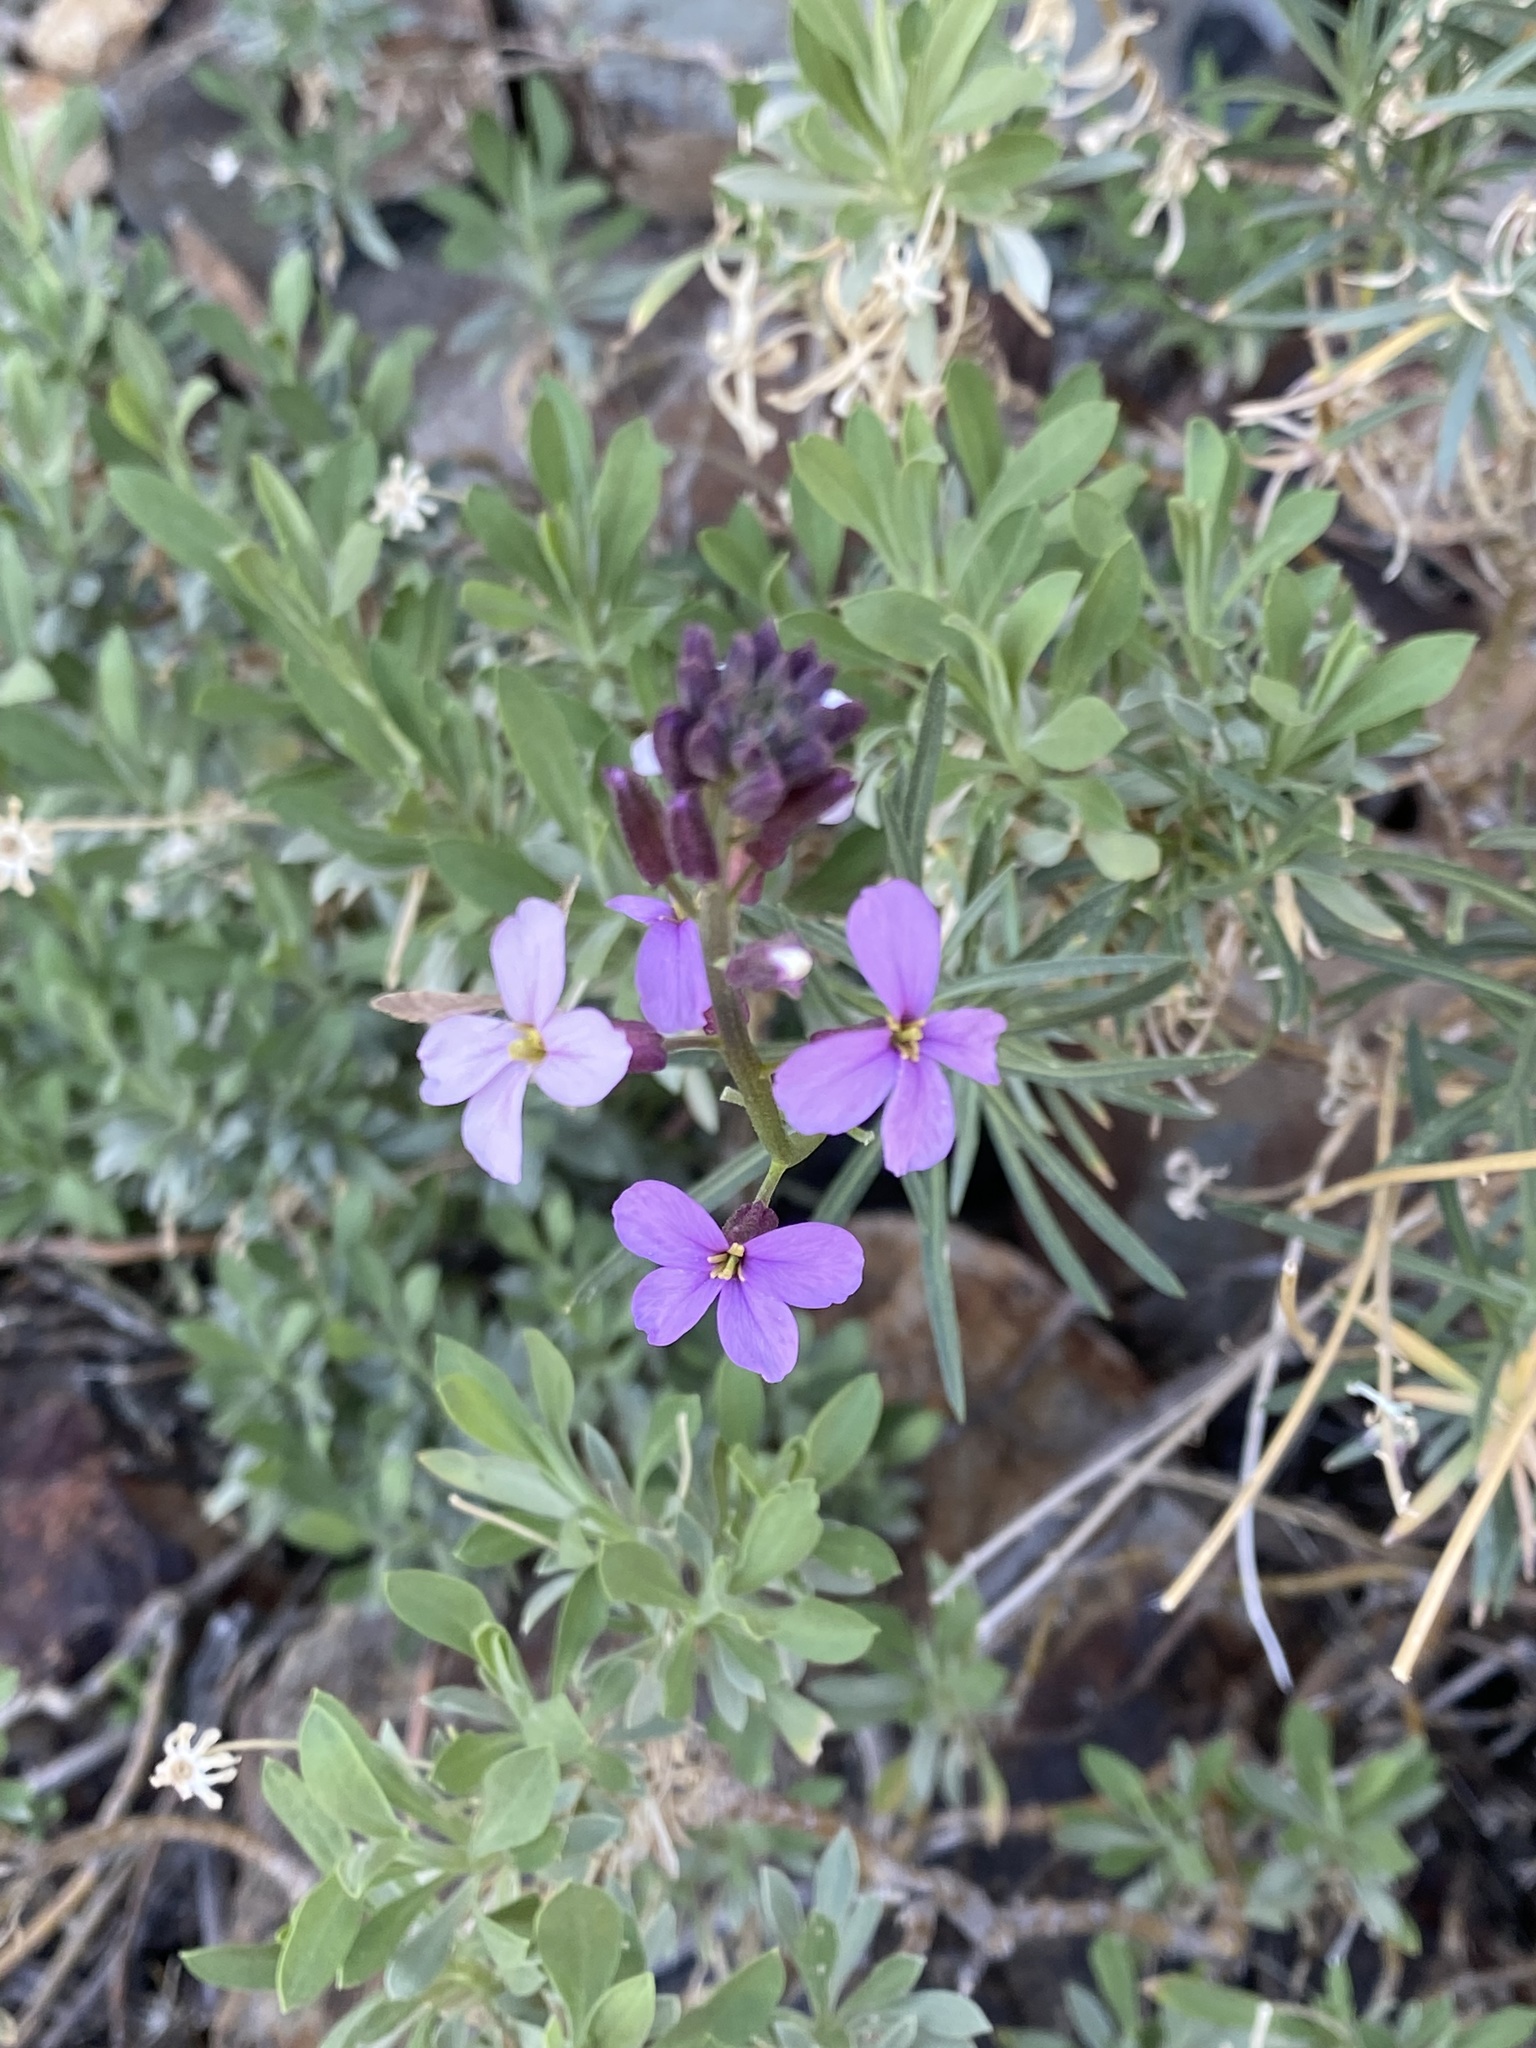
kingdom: Plantae
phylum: Tracheophyta
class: Magnoliopsida
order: Brassicales
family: Brassicaceae
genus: Erysimum
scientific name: Erysimum scoparium
